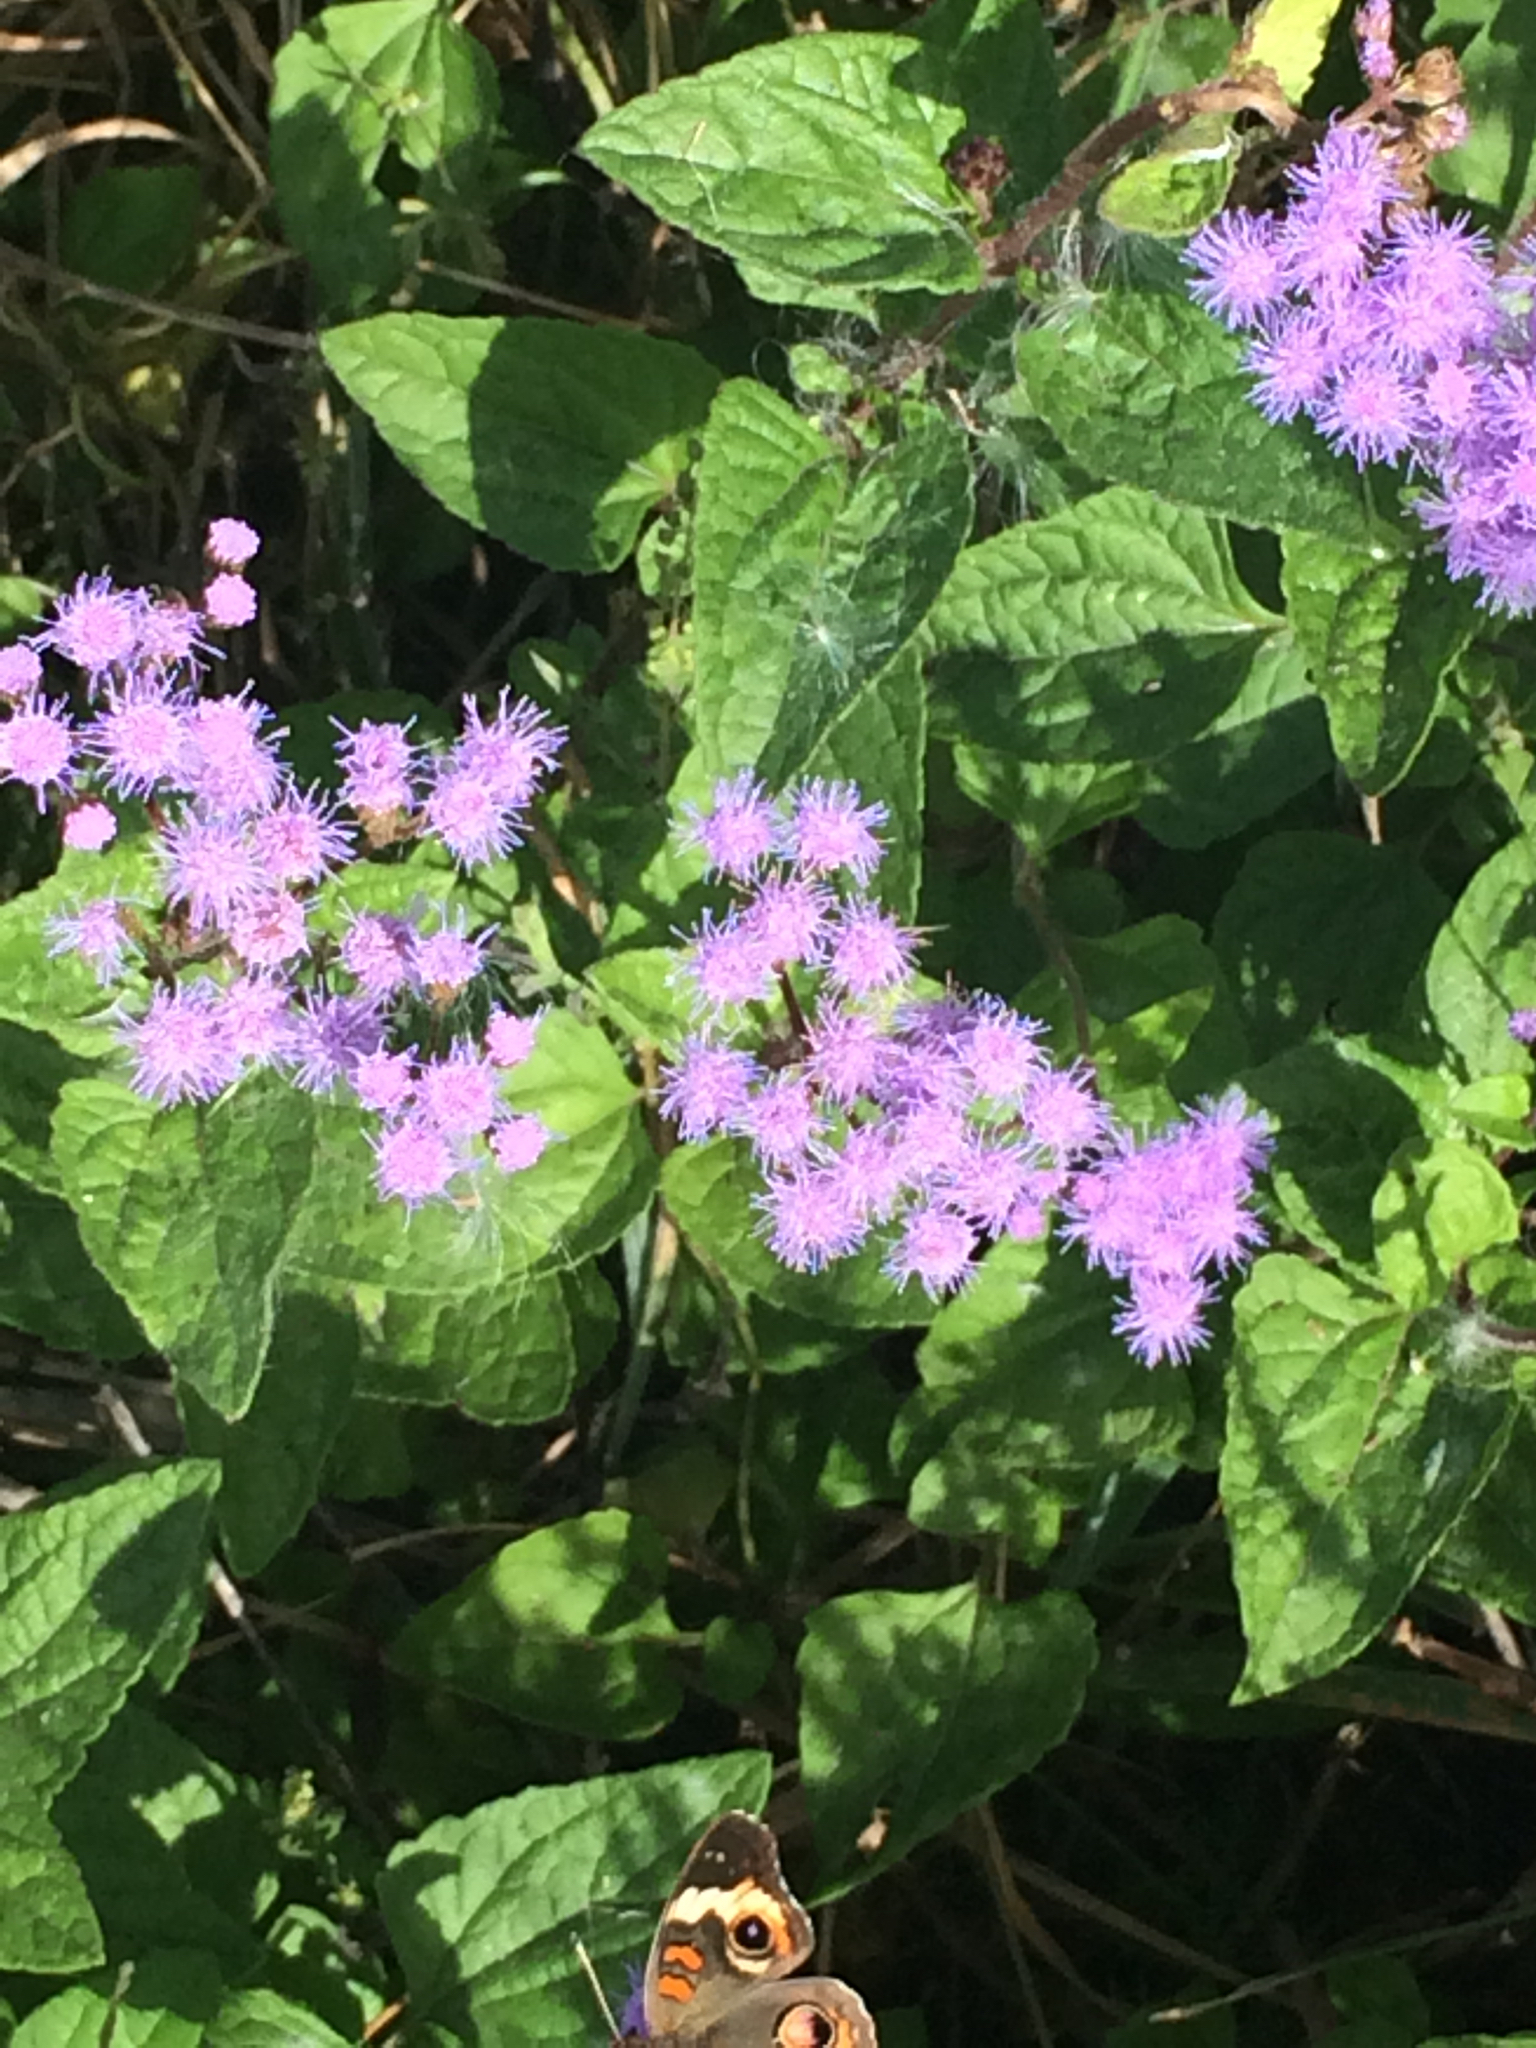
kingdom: Plantae
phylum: Tracheophyta
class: Magnoliopsida
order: Asterales
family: Asteraceae
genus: Conoclinium
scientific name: Conoclinium coelestinum
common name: Blue mistflower
